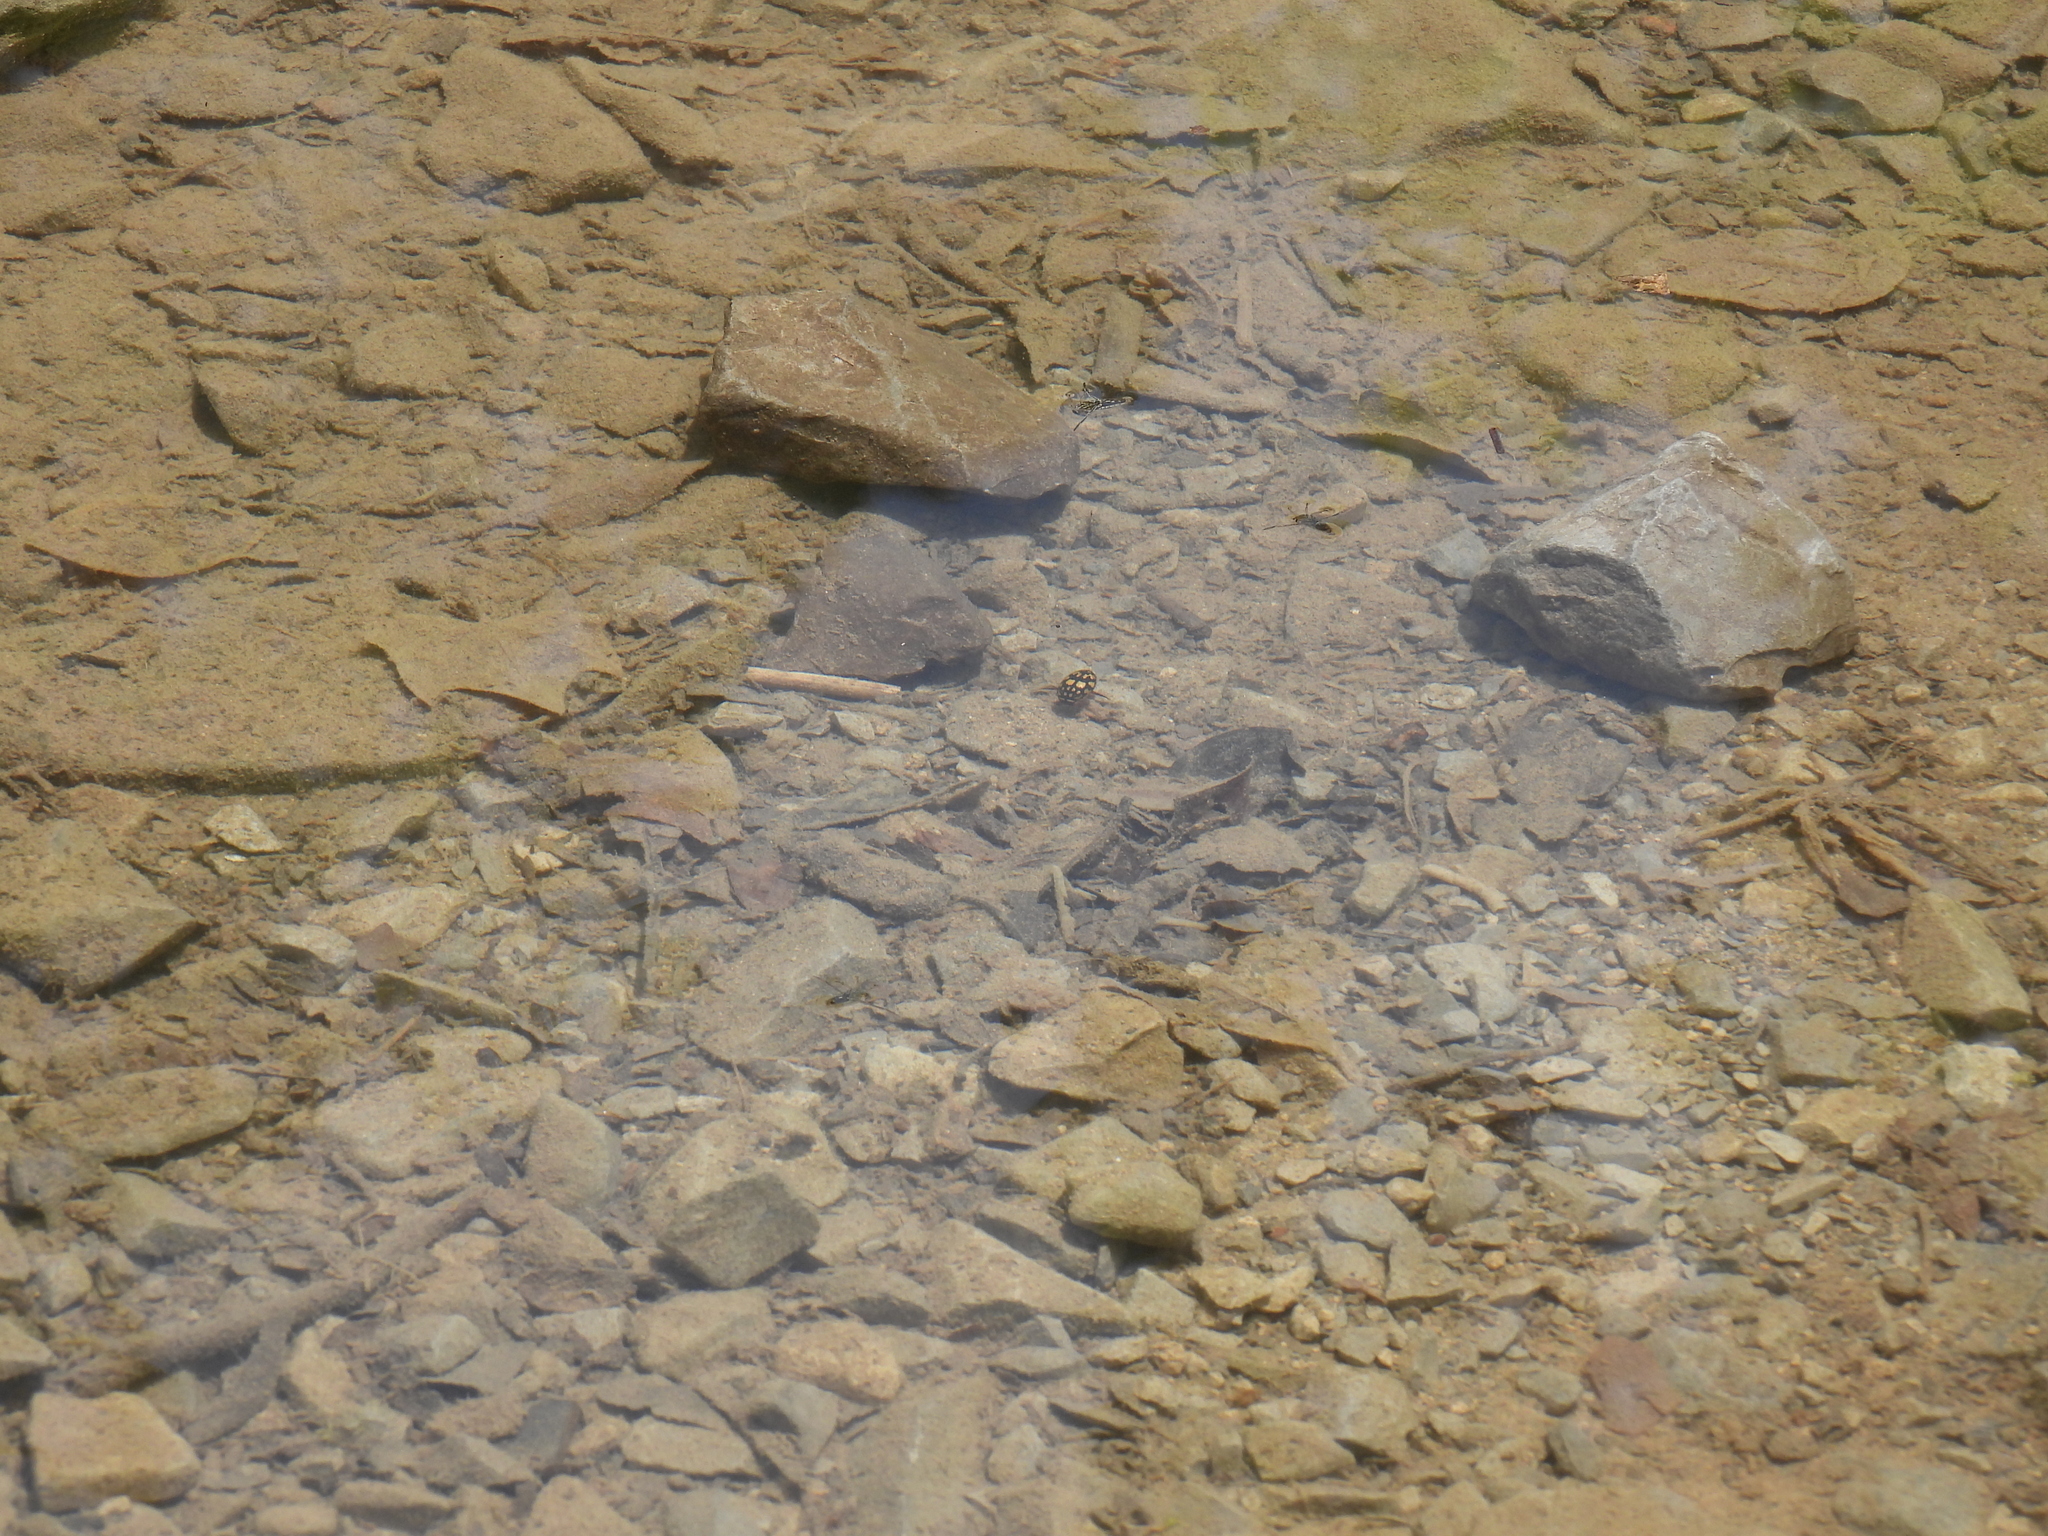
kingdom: Animalia
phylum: Arthropoda
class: Insecta
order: Coleoptera
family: Dytiscidae
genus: Thermonectus
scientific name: Thermonectus marmoratus
